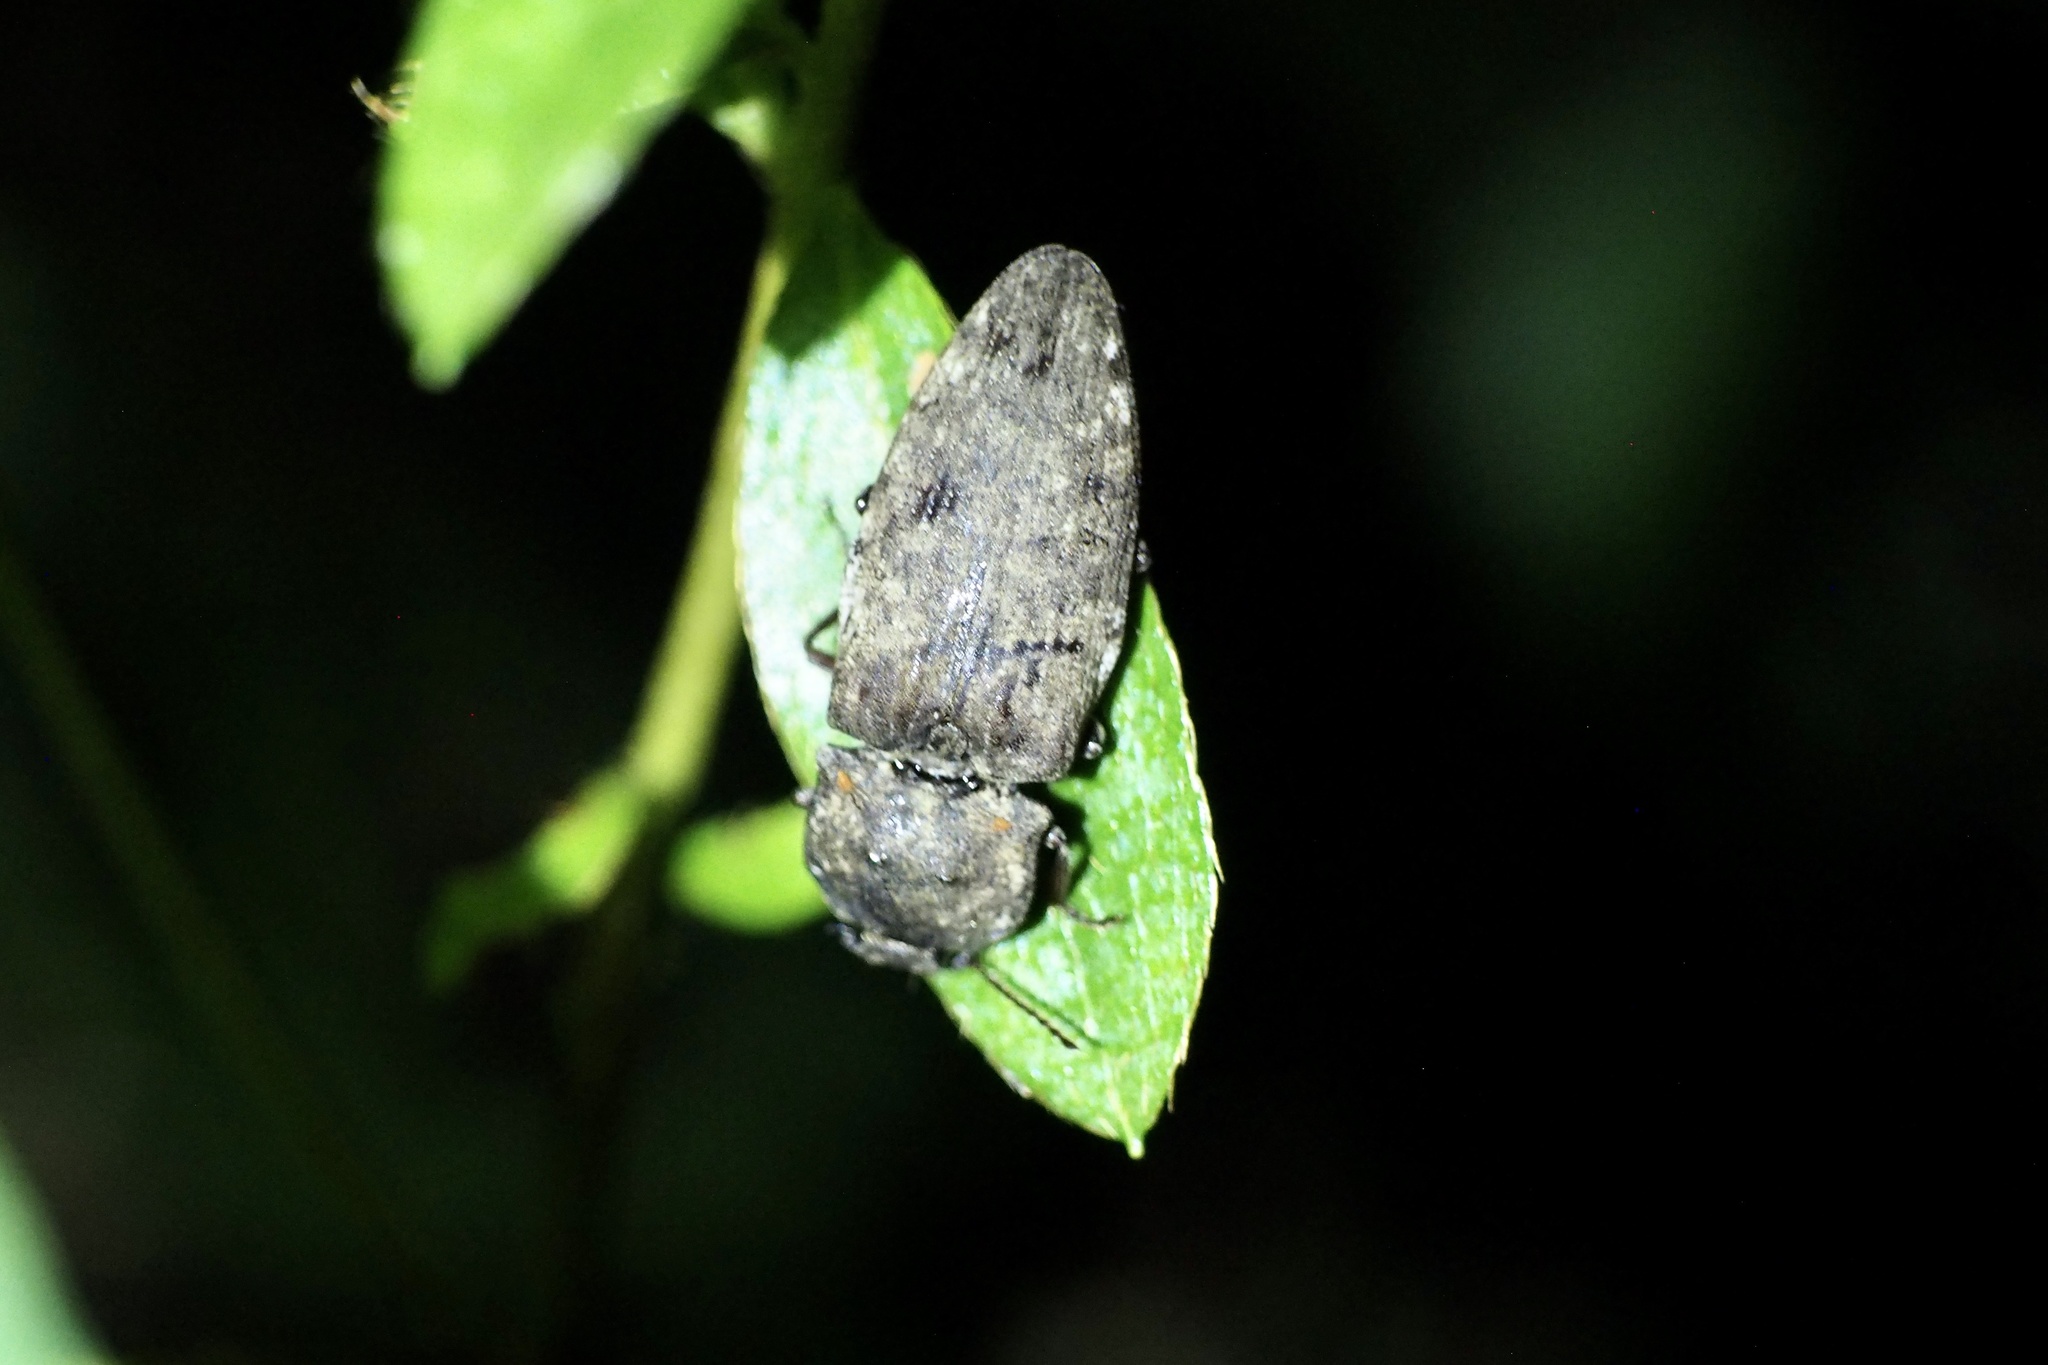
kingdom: Animalia
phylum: Arthropoda
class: Insecta
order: Coleoptera
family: Elateridae
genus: Agrypnus
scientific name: Agrypnus binodulus
